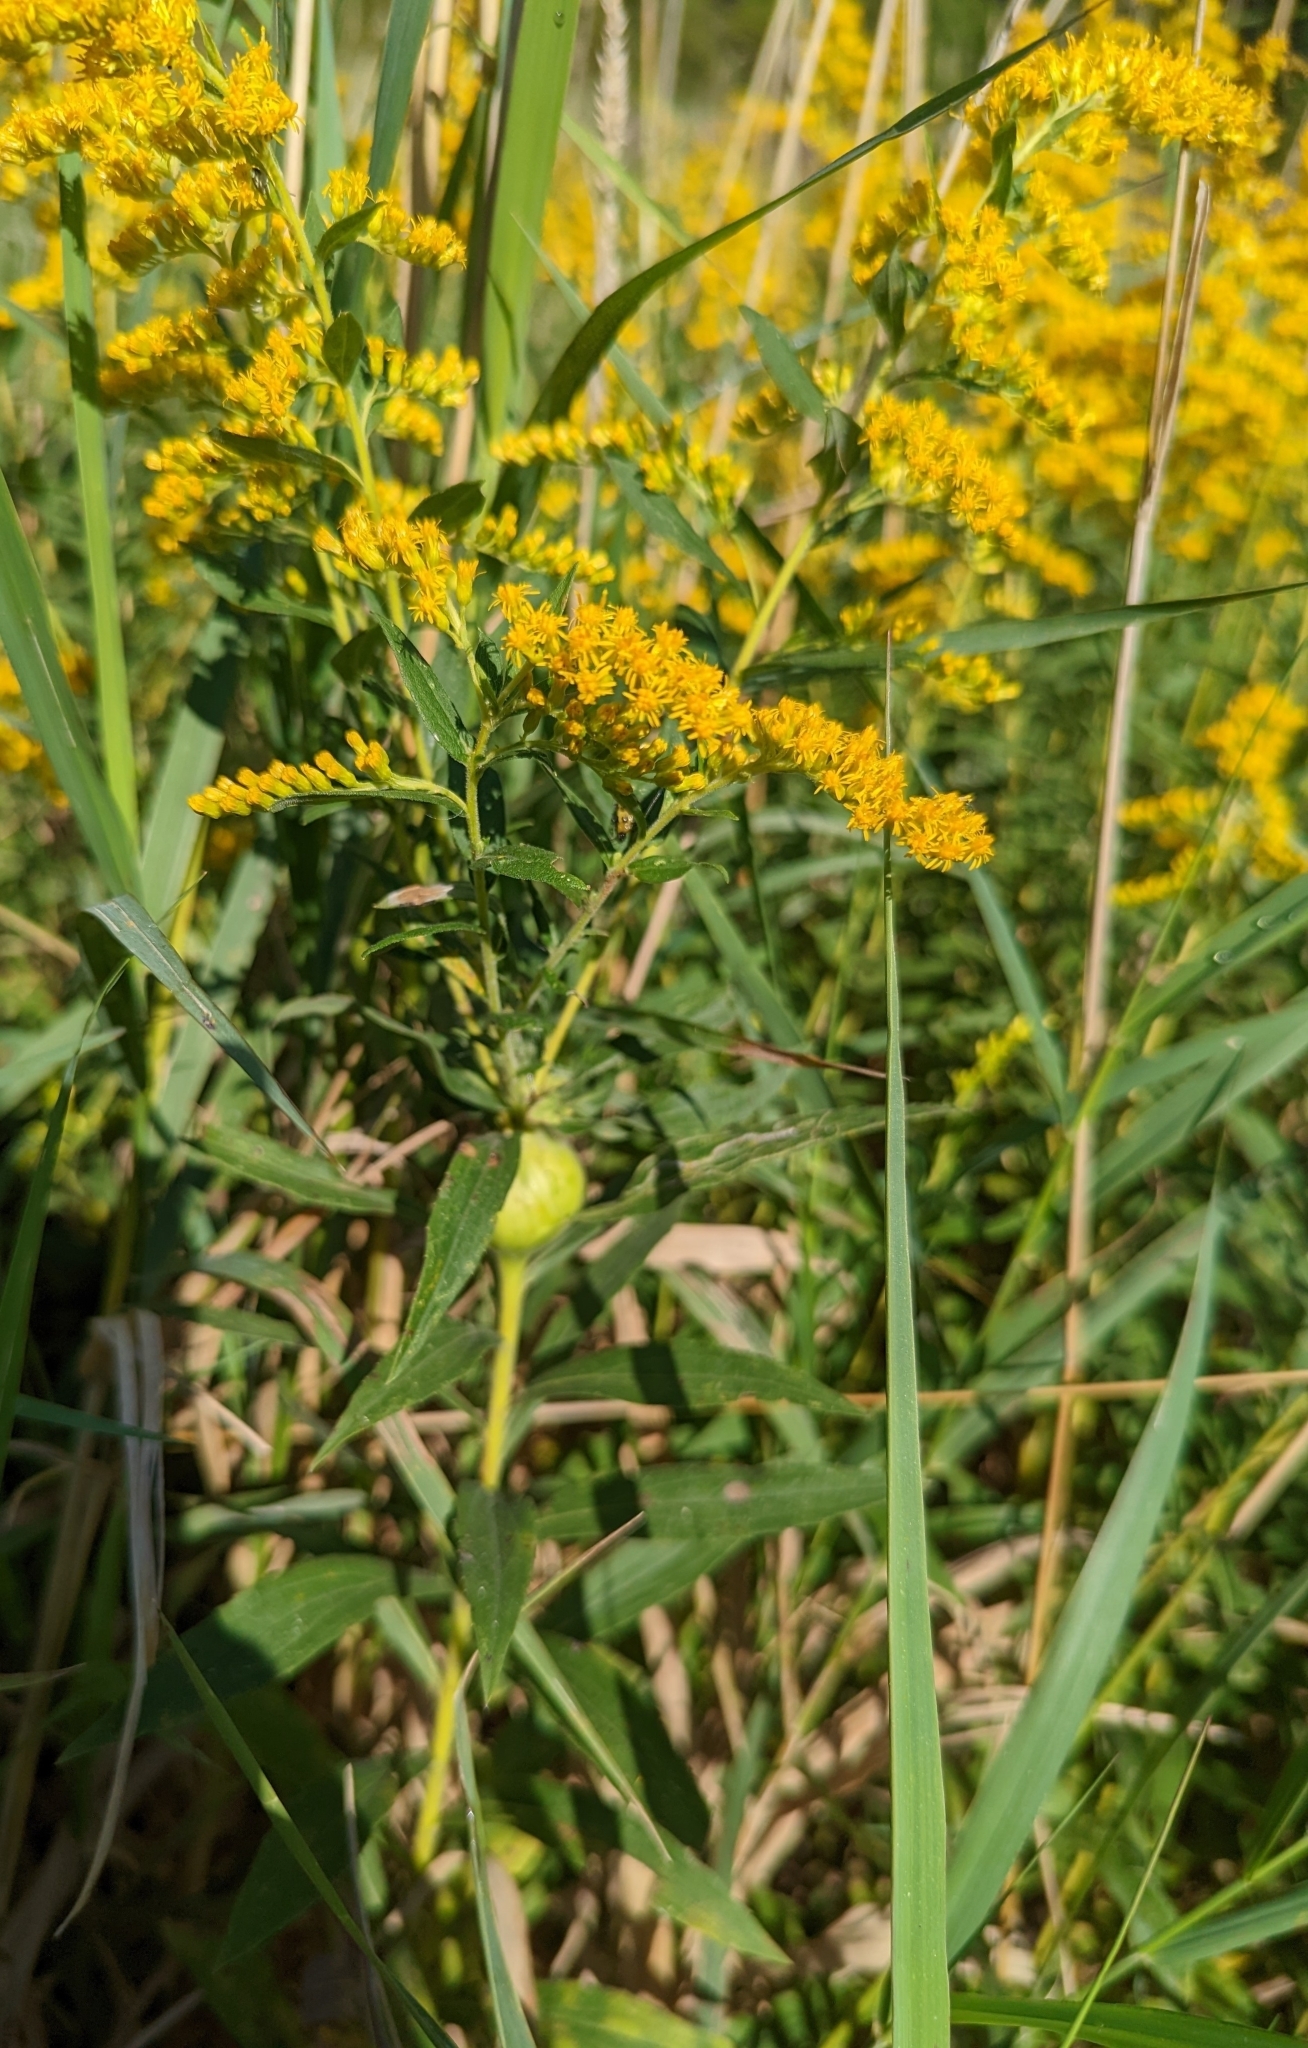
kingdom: Animalia
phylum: Arthropoda
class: Insecta
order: Diptera
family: Tephritidae
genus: Eurosta
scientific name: Eurosta solidaginis
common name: Goldenrod gall fly
